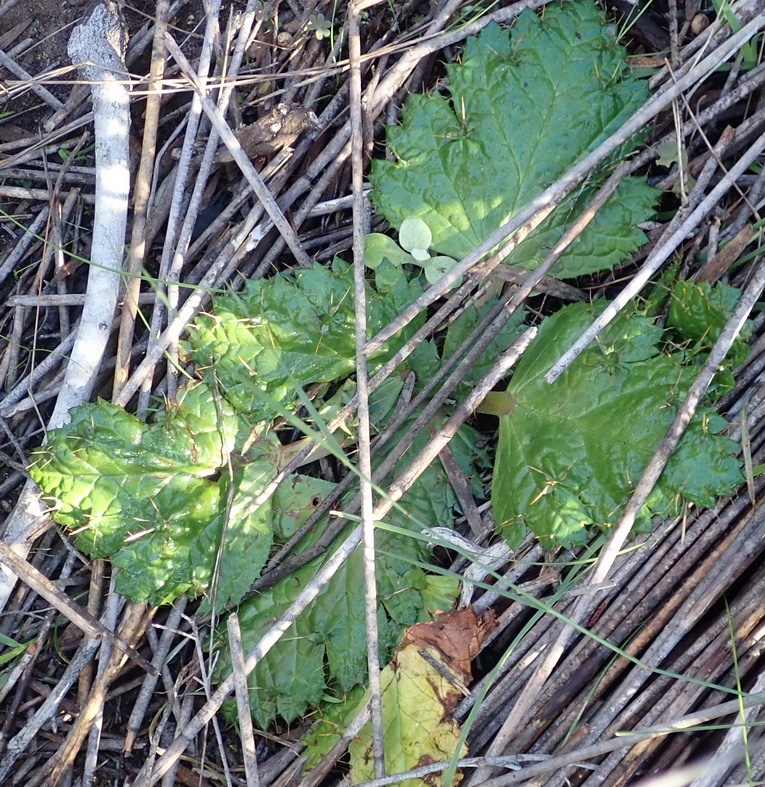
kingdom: Plantae
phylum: Tracheophyta
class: Magnoliopsida
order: Apiales
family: Apiaceae
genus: Arctopus
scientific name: Arctopus echinatus
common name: Platdoring
